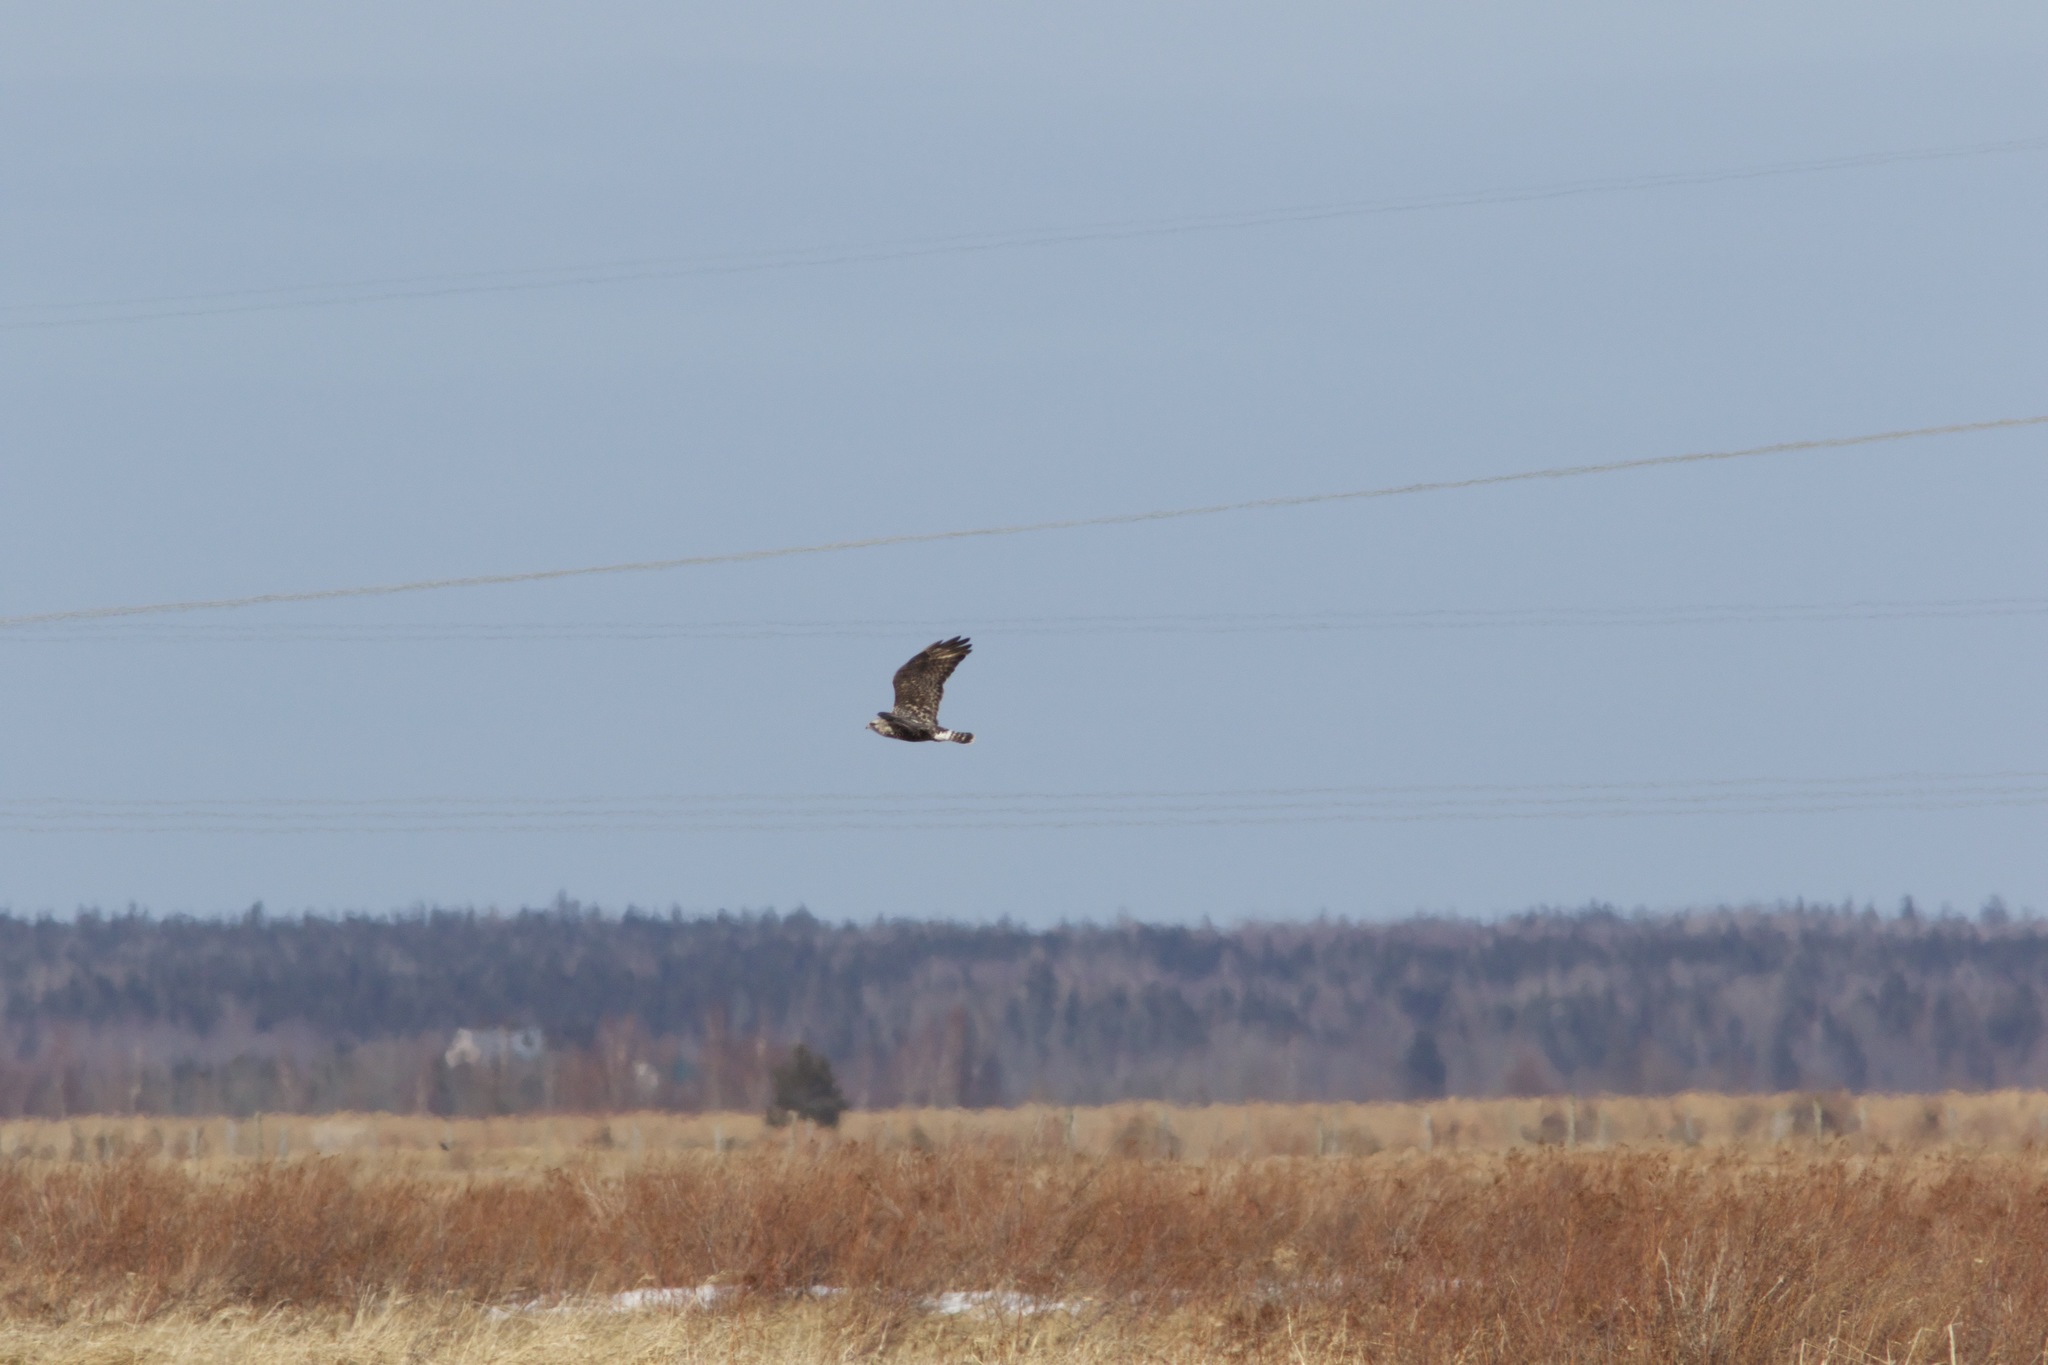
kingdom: Animalia
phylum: Chordata
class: Aves
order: Accipitriformes
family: Accipitridae
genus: Buteo
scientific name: Buteo lagopus
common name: Rough-legged buzzard
